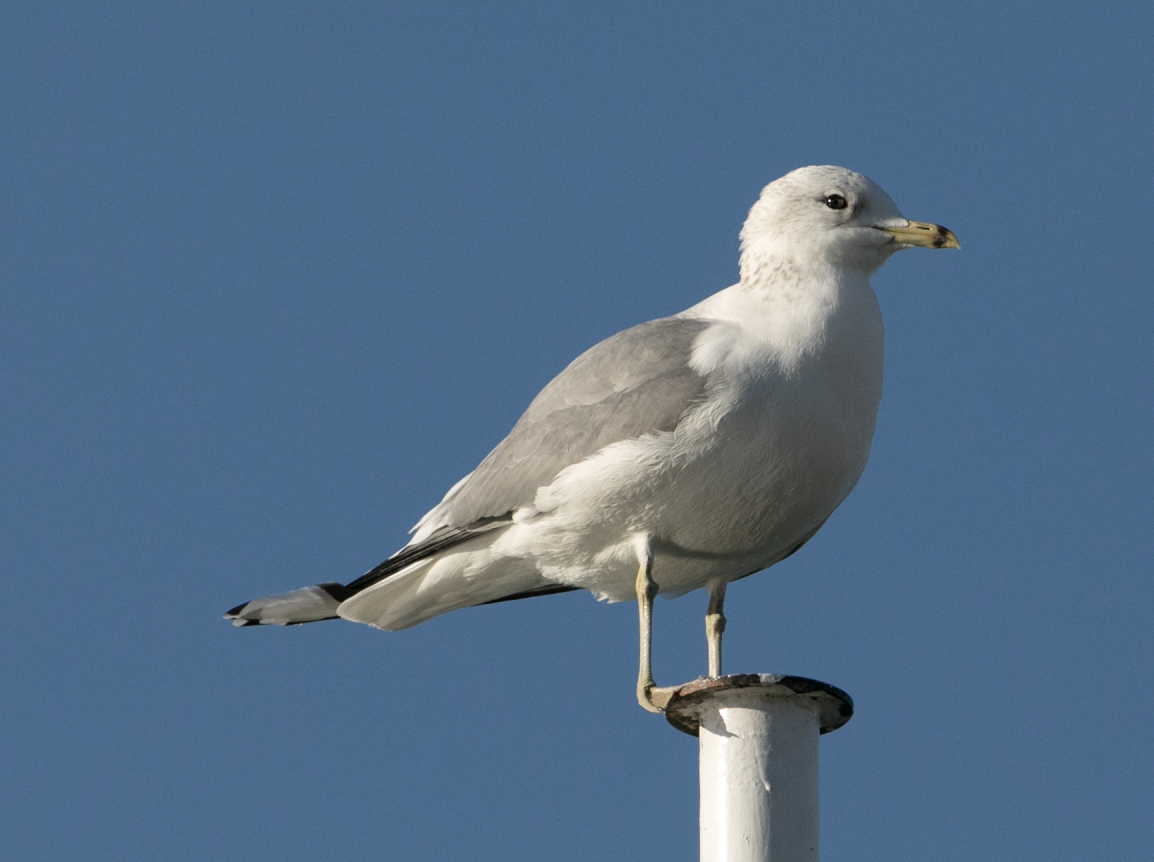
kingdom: Animalia
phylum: Chordata
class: Aves
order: Charadriiformes
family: Laridae
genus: Larus
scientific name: Larus canus
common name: Mew gull
